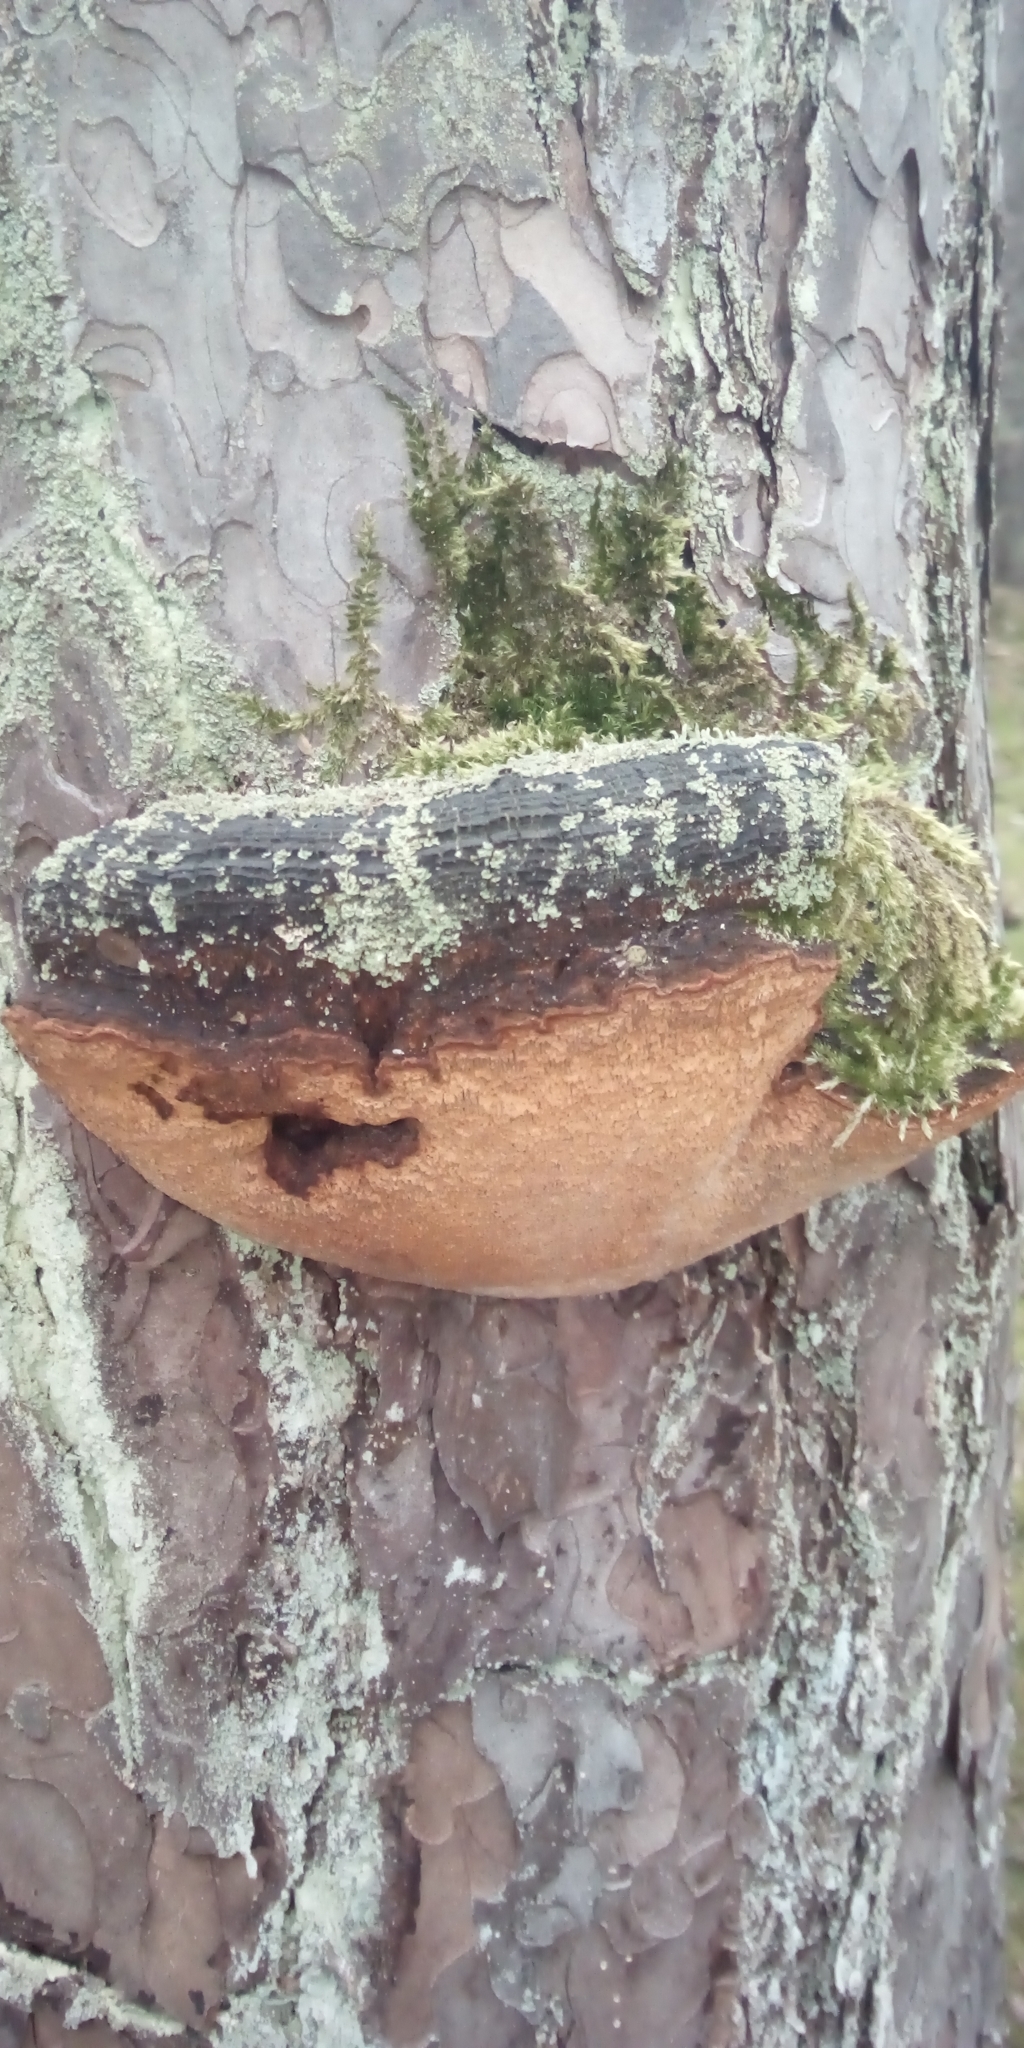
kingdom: Fungi
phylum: Basidiomycota
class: Agaricomycetes
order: Hymenochaetales
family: Hymenochaetaceae
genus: Porodaedalea
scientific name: Porodaedalea pini
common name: Pine bracket
